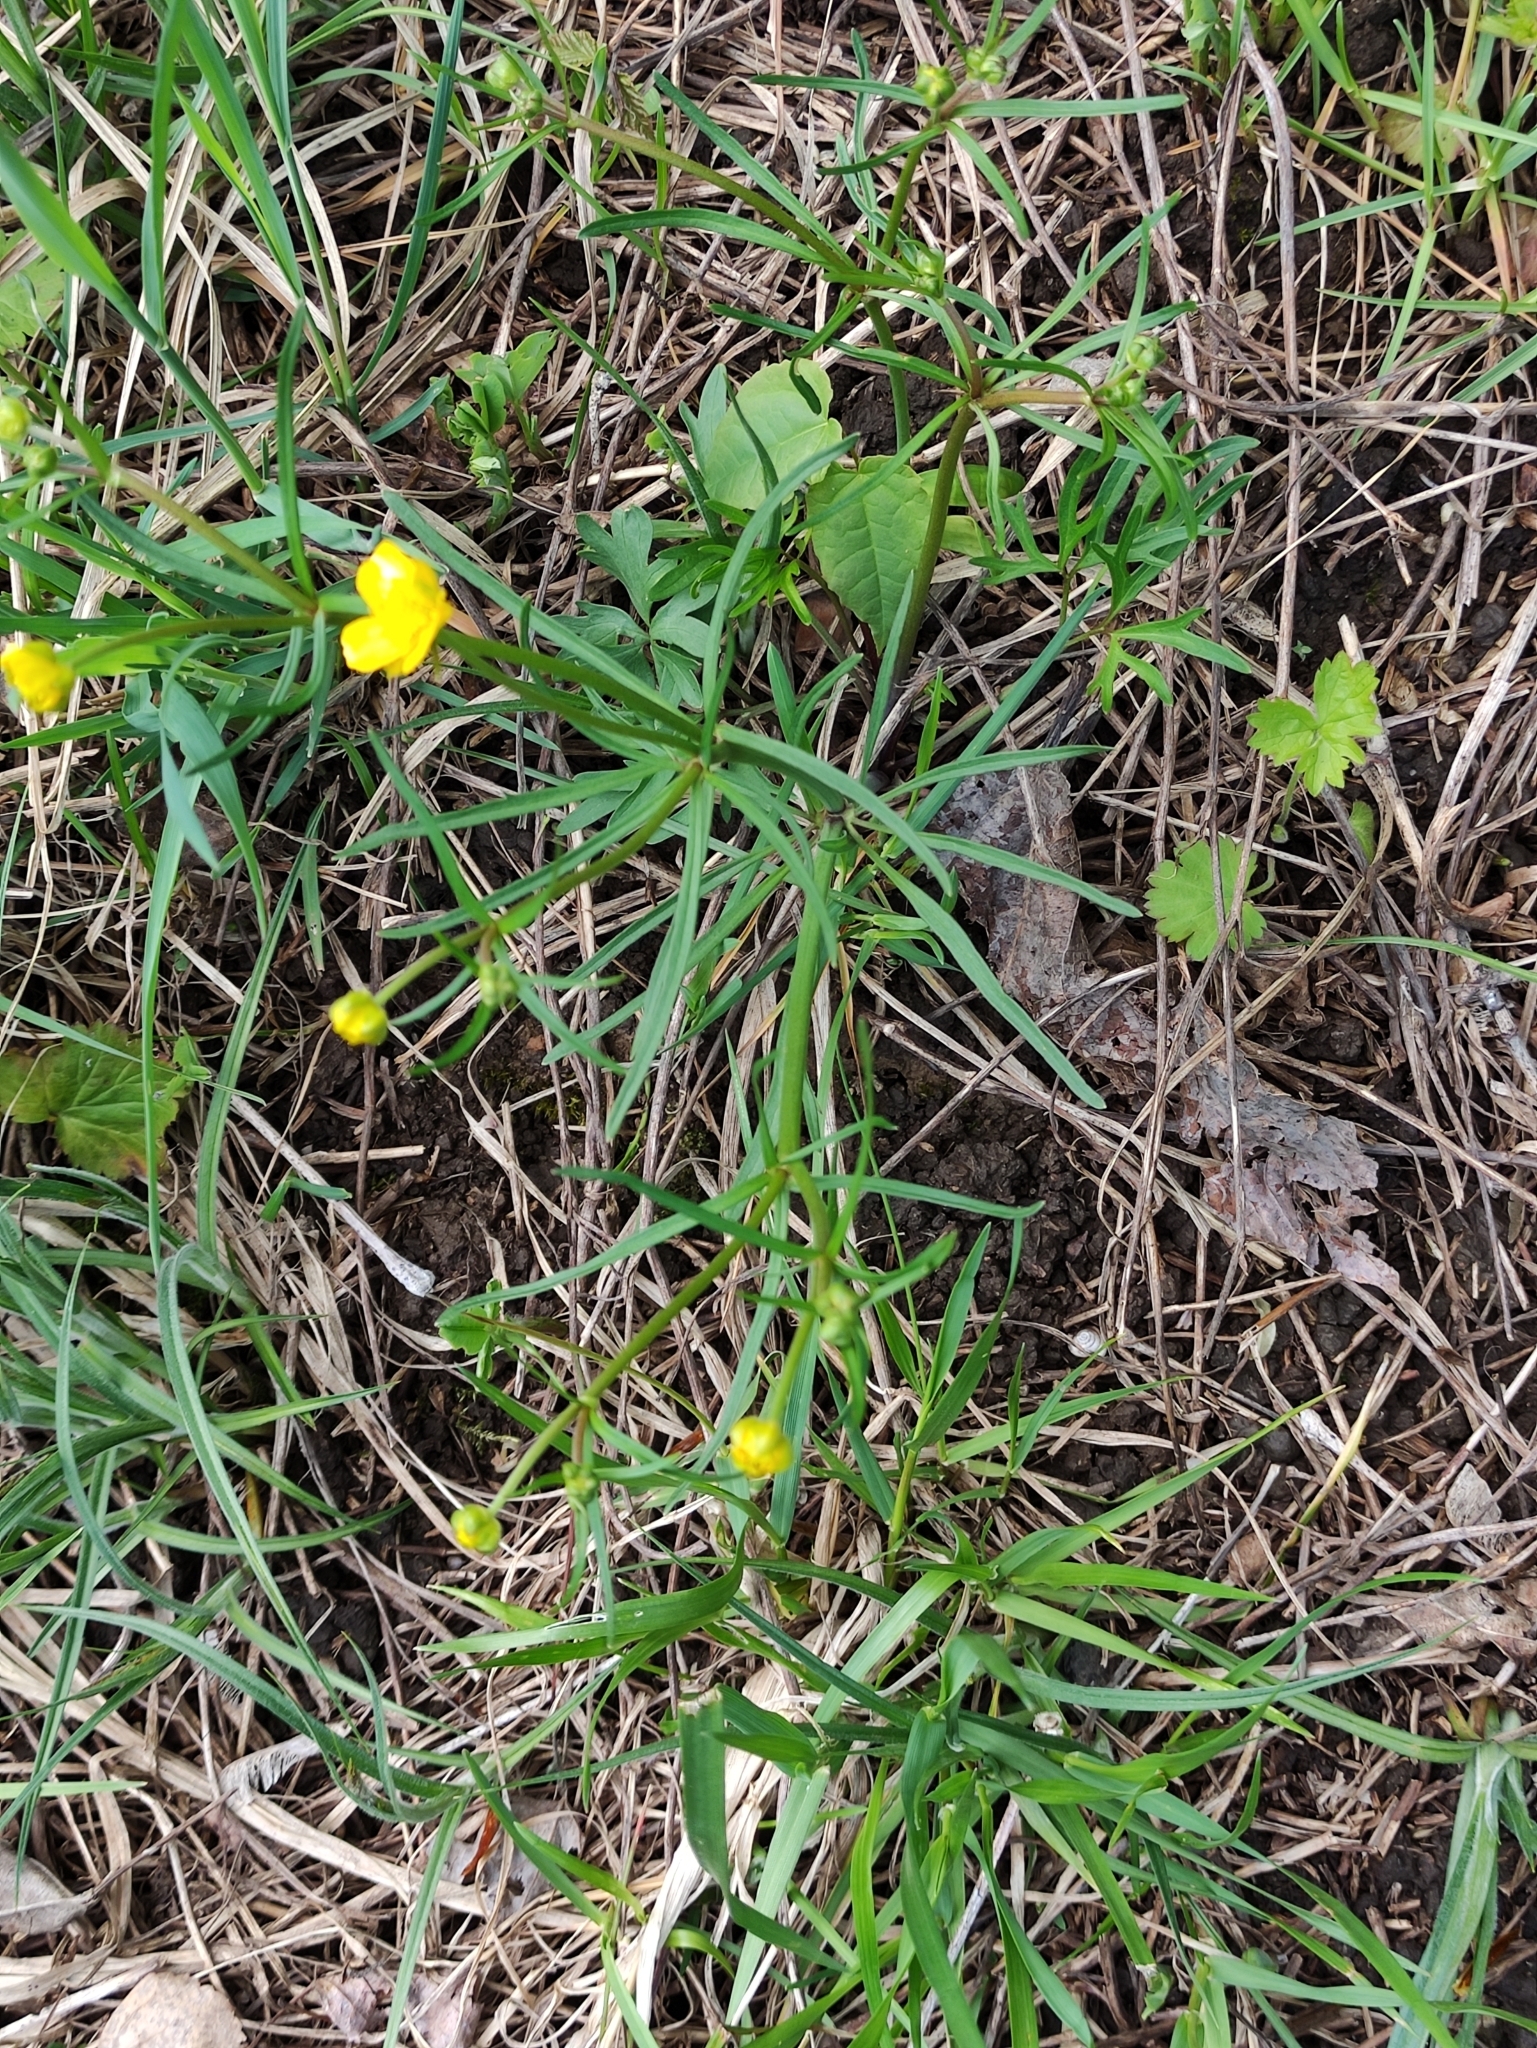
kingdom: Plantae
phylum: Tracheophyta
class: Magnoliopsida
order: Ranunculales
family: Ranunculaceae
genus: Ranunculus
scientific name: Ranunculus auricomus
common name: Goldilocks buttercup
